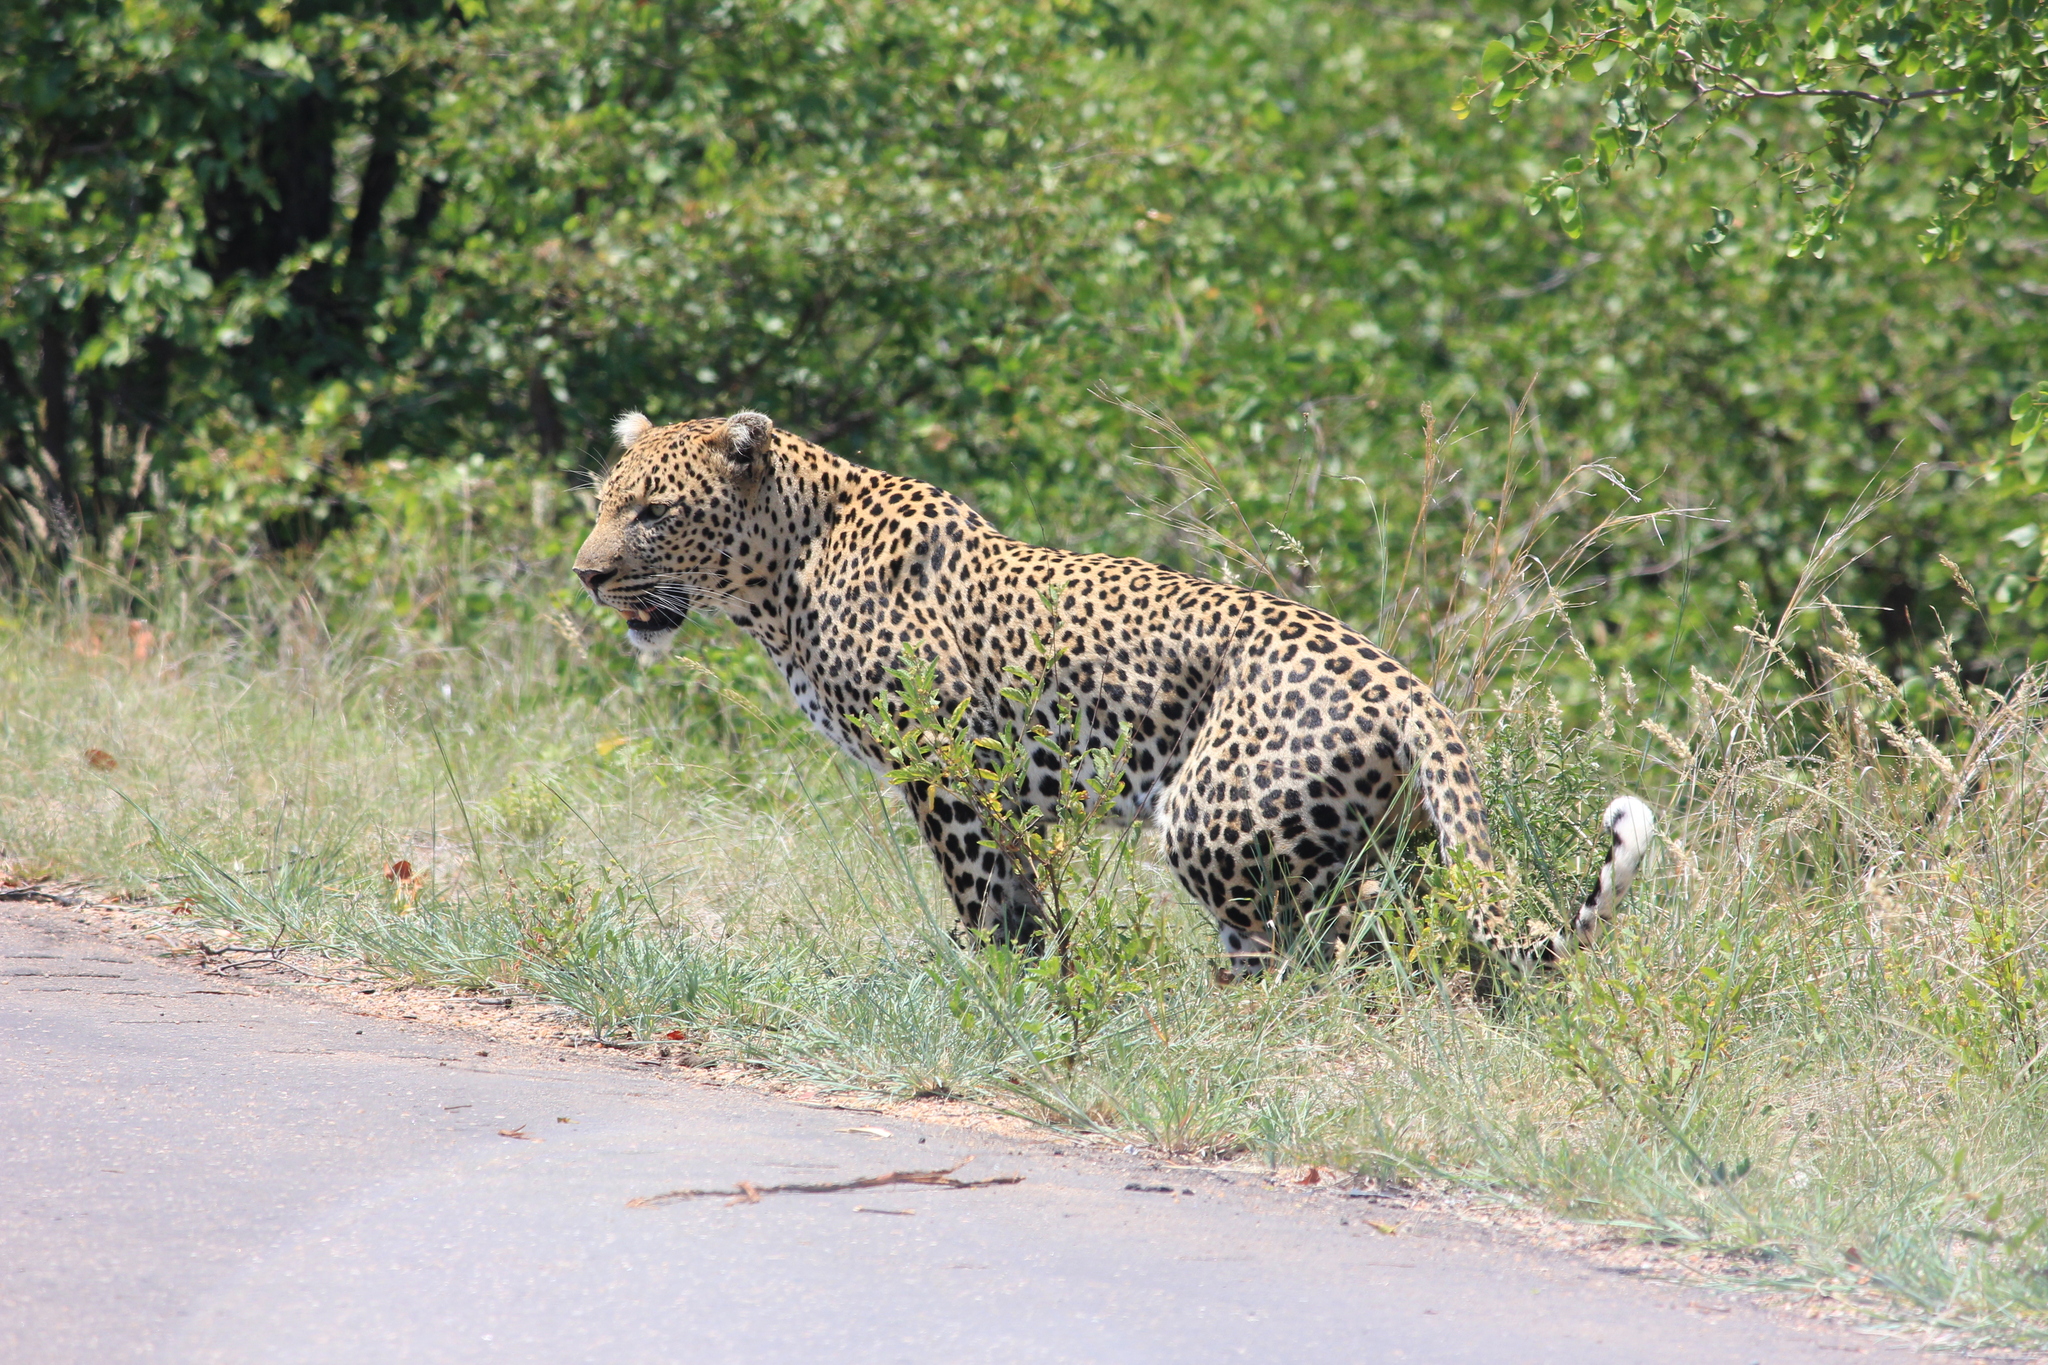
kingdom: Animalia
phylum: Chordata
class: Mammalia
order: Carnivora
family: Felidae
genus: Panthera
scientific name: Panthera pardus
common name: Leopard
